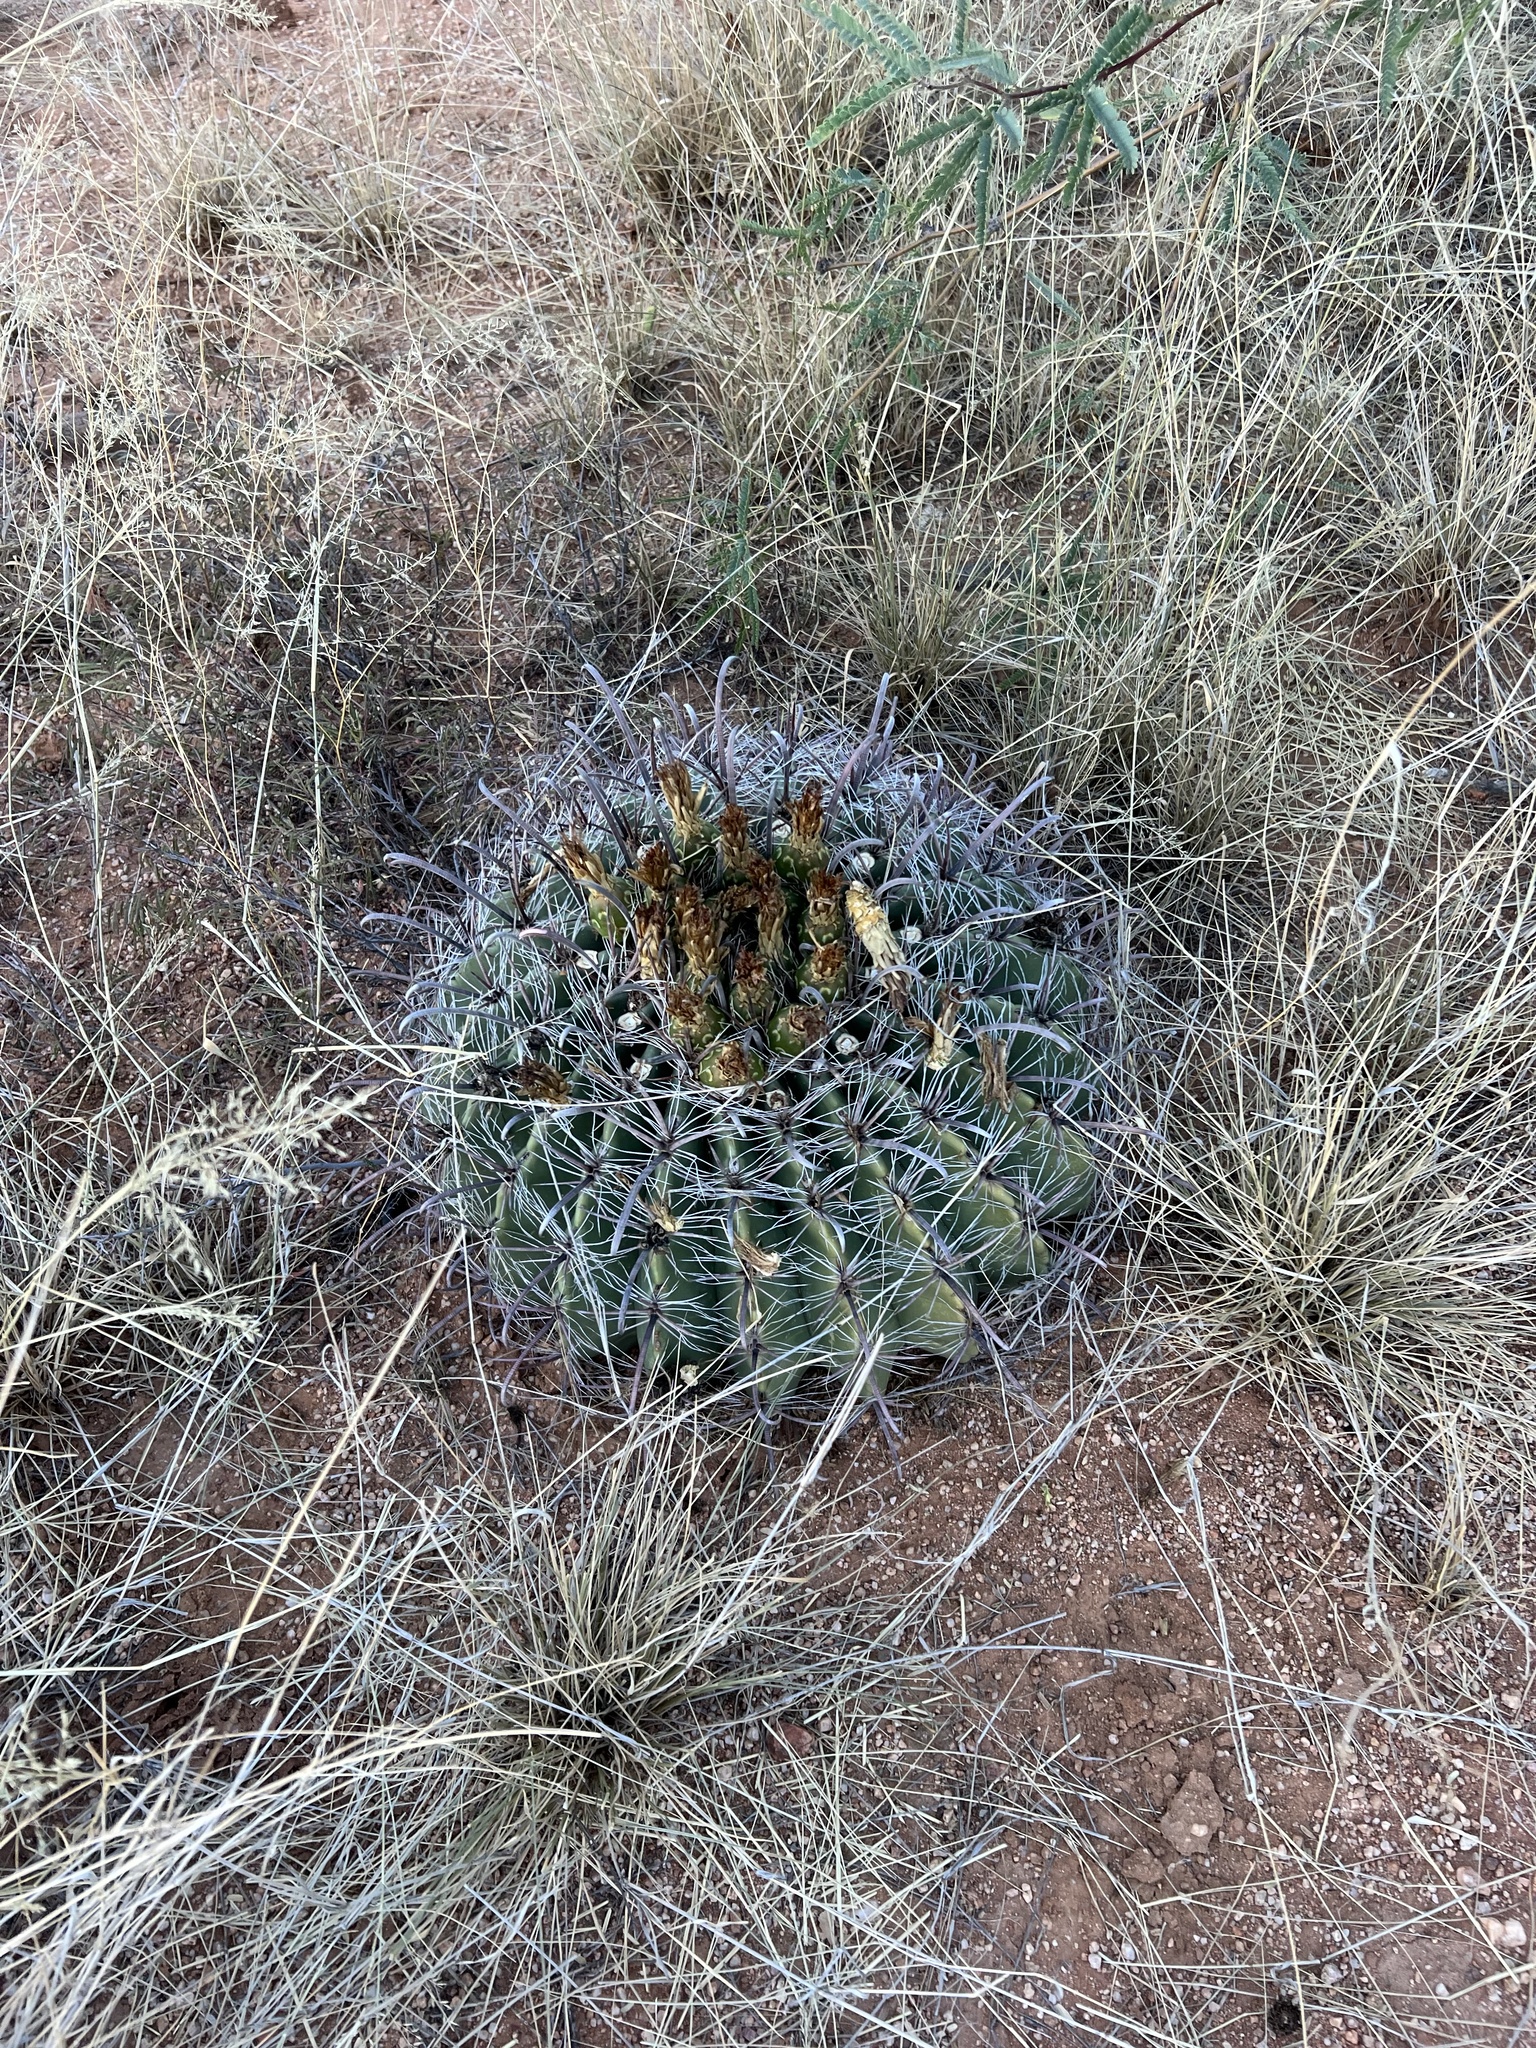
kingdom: Plantae
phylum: Tracheophyta
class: Magnoliopsida
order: Caryophyllales
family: Cactaceae
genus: Ferocactus
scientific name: Ferocactus wislizeni
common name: Candy barrel cactus
